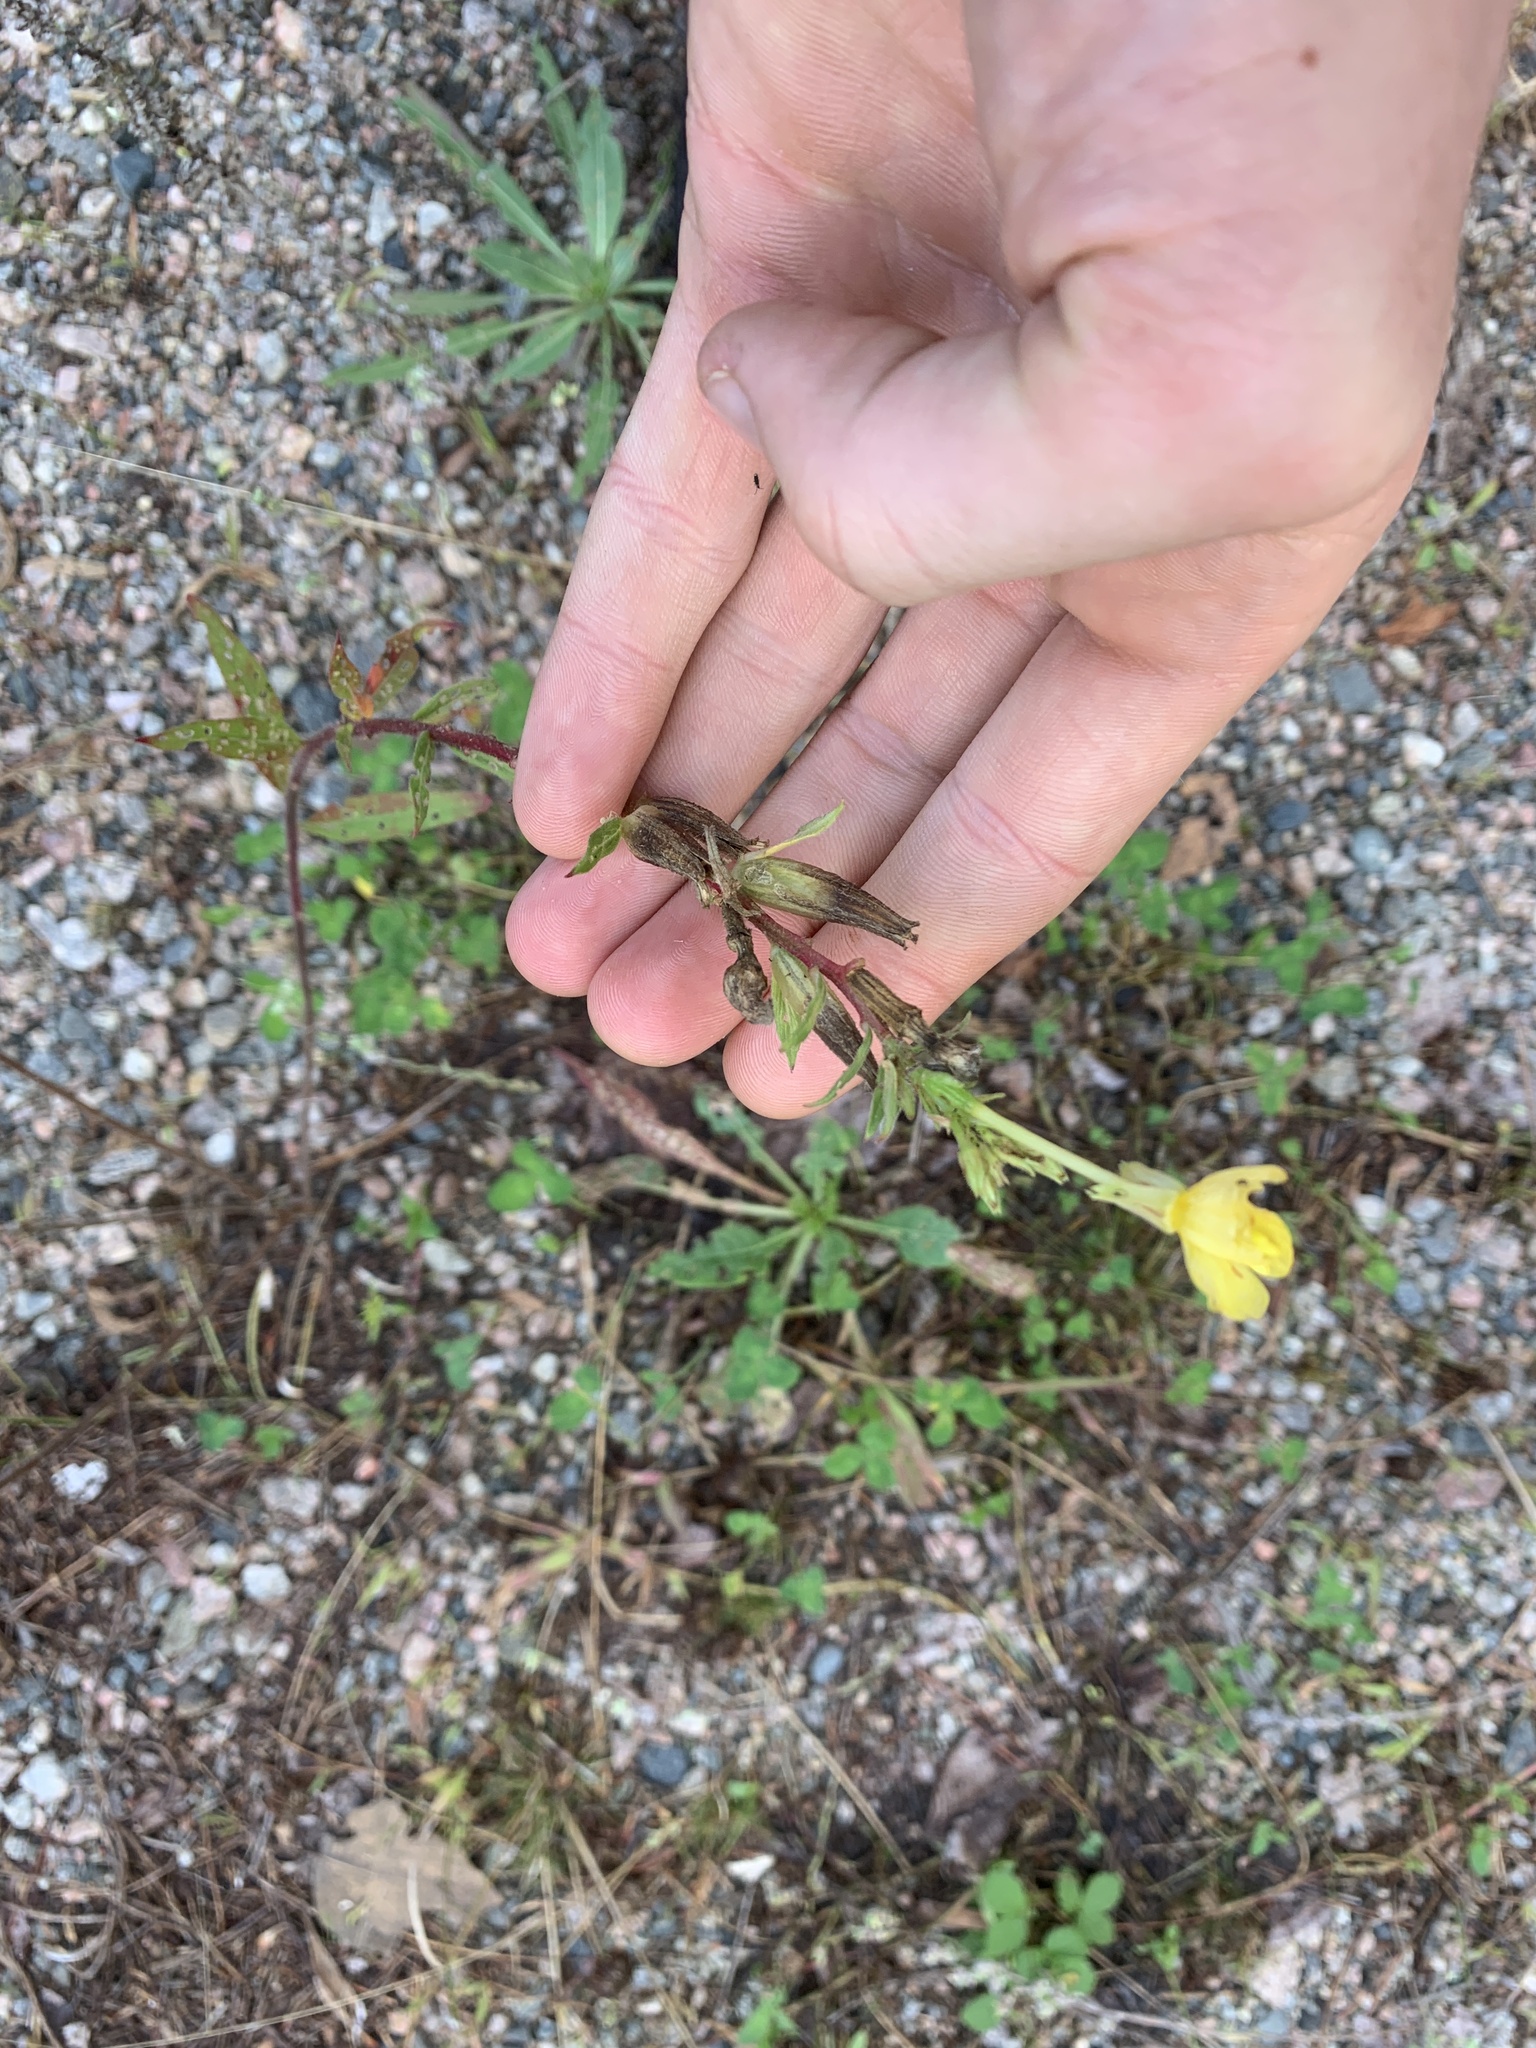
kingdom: Plantae
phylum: Tracheophyta
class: Magnoliopsida
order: Myrtales
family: Onagraceae
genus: Oenothera
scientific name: Oenothera parviflora
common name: Least evening-primrose
